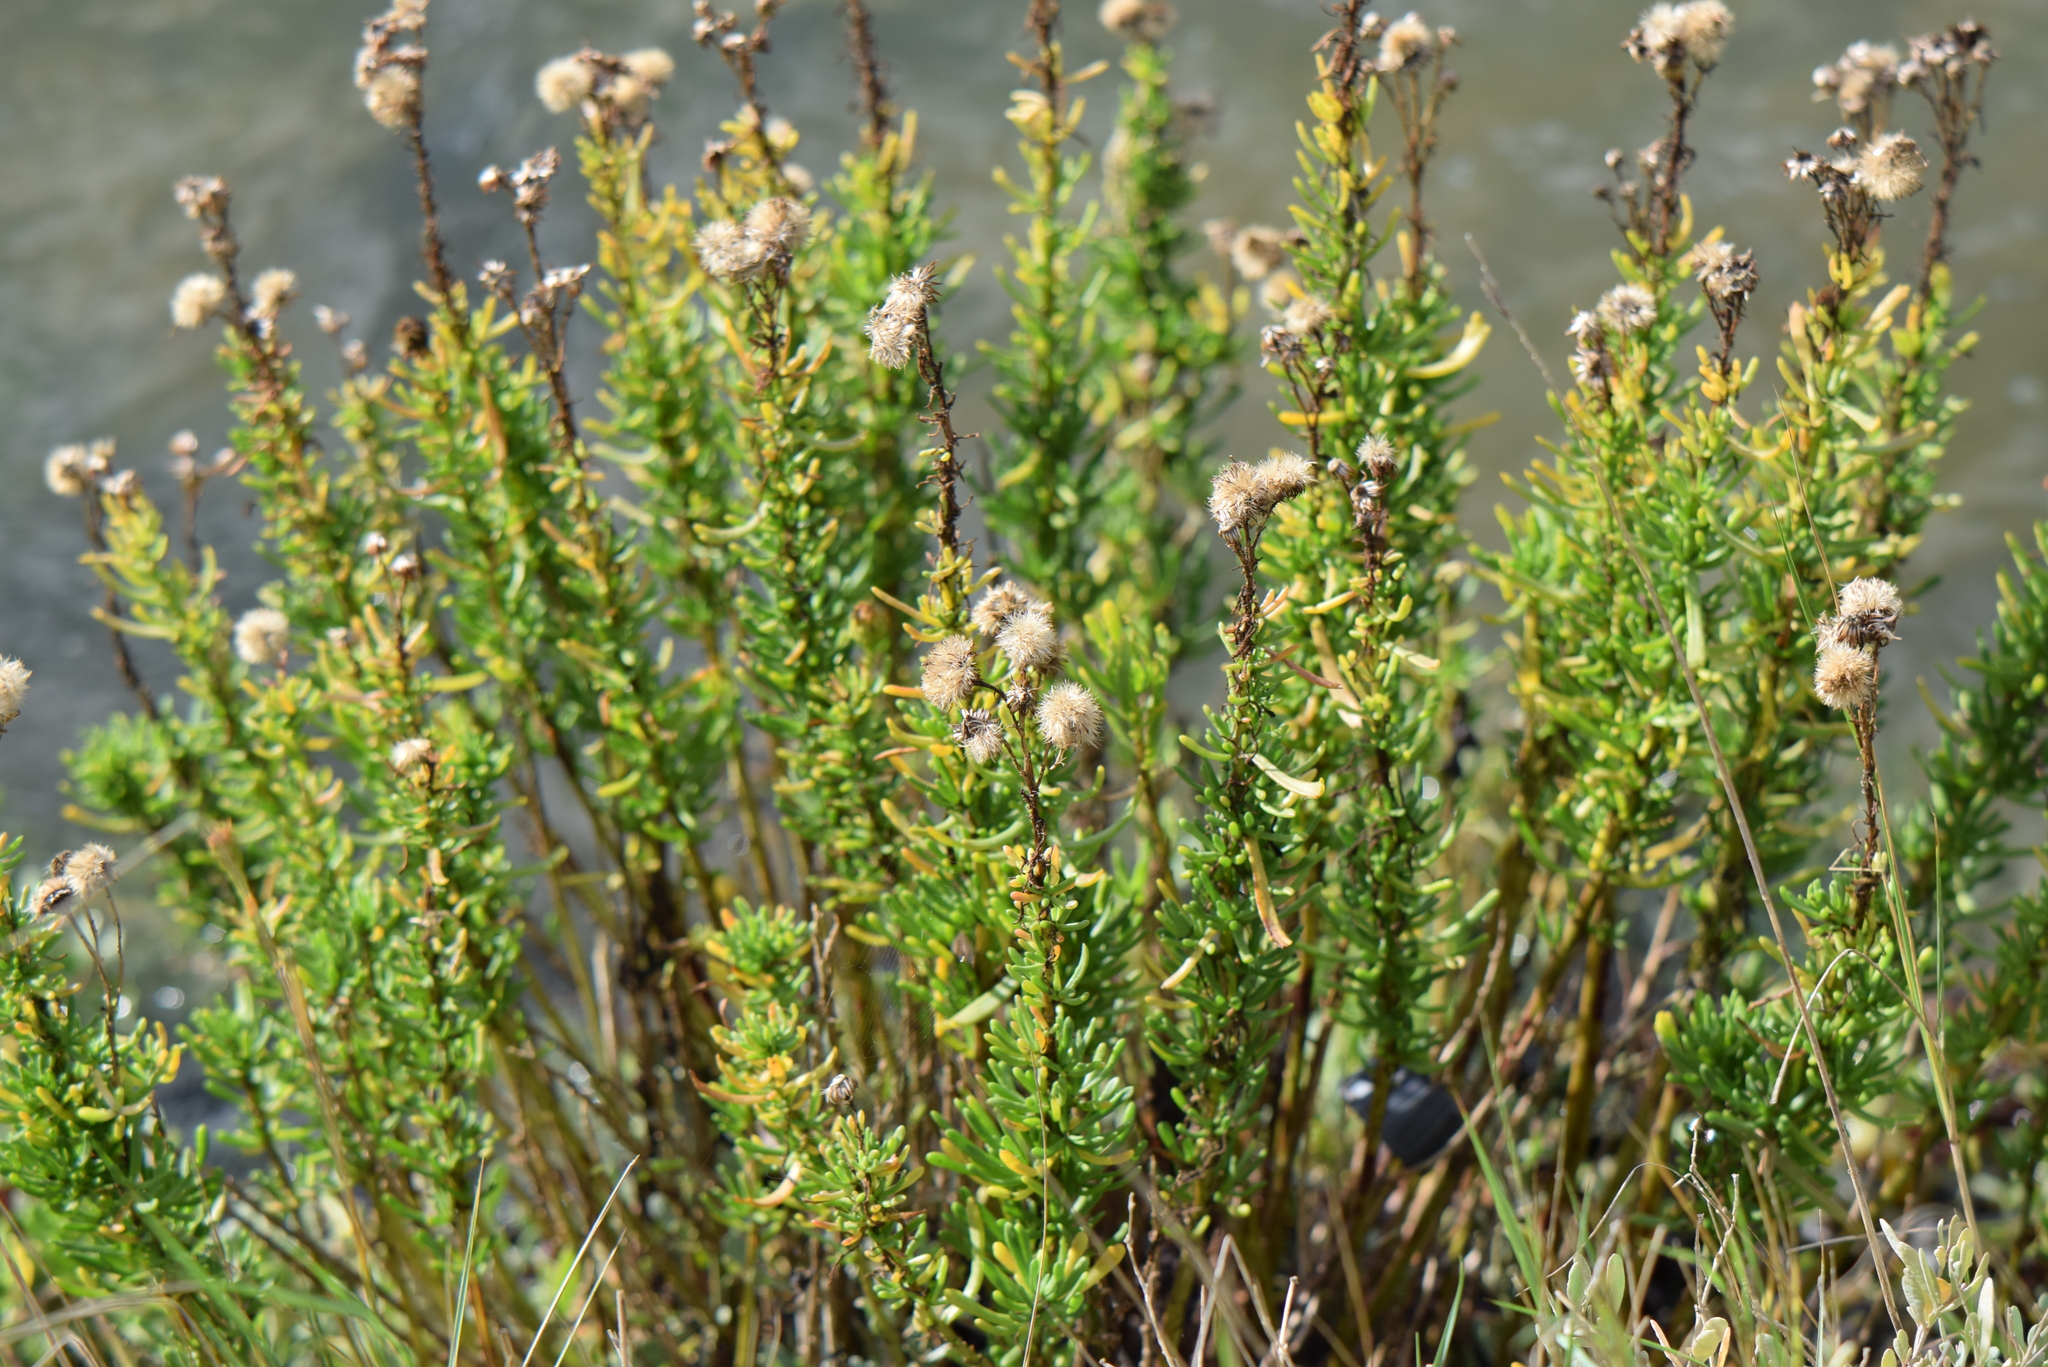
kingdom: Plantae
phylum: Tracheophyta
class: Magnoliopsida
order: Asterales
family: Asteraceae
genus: Limbarda
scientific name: Limbarda crithmoides
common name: Golden samphire
